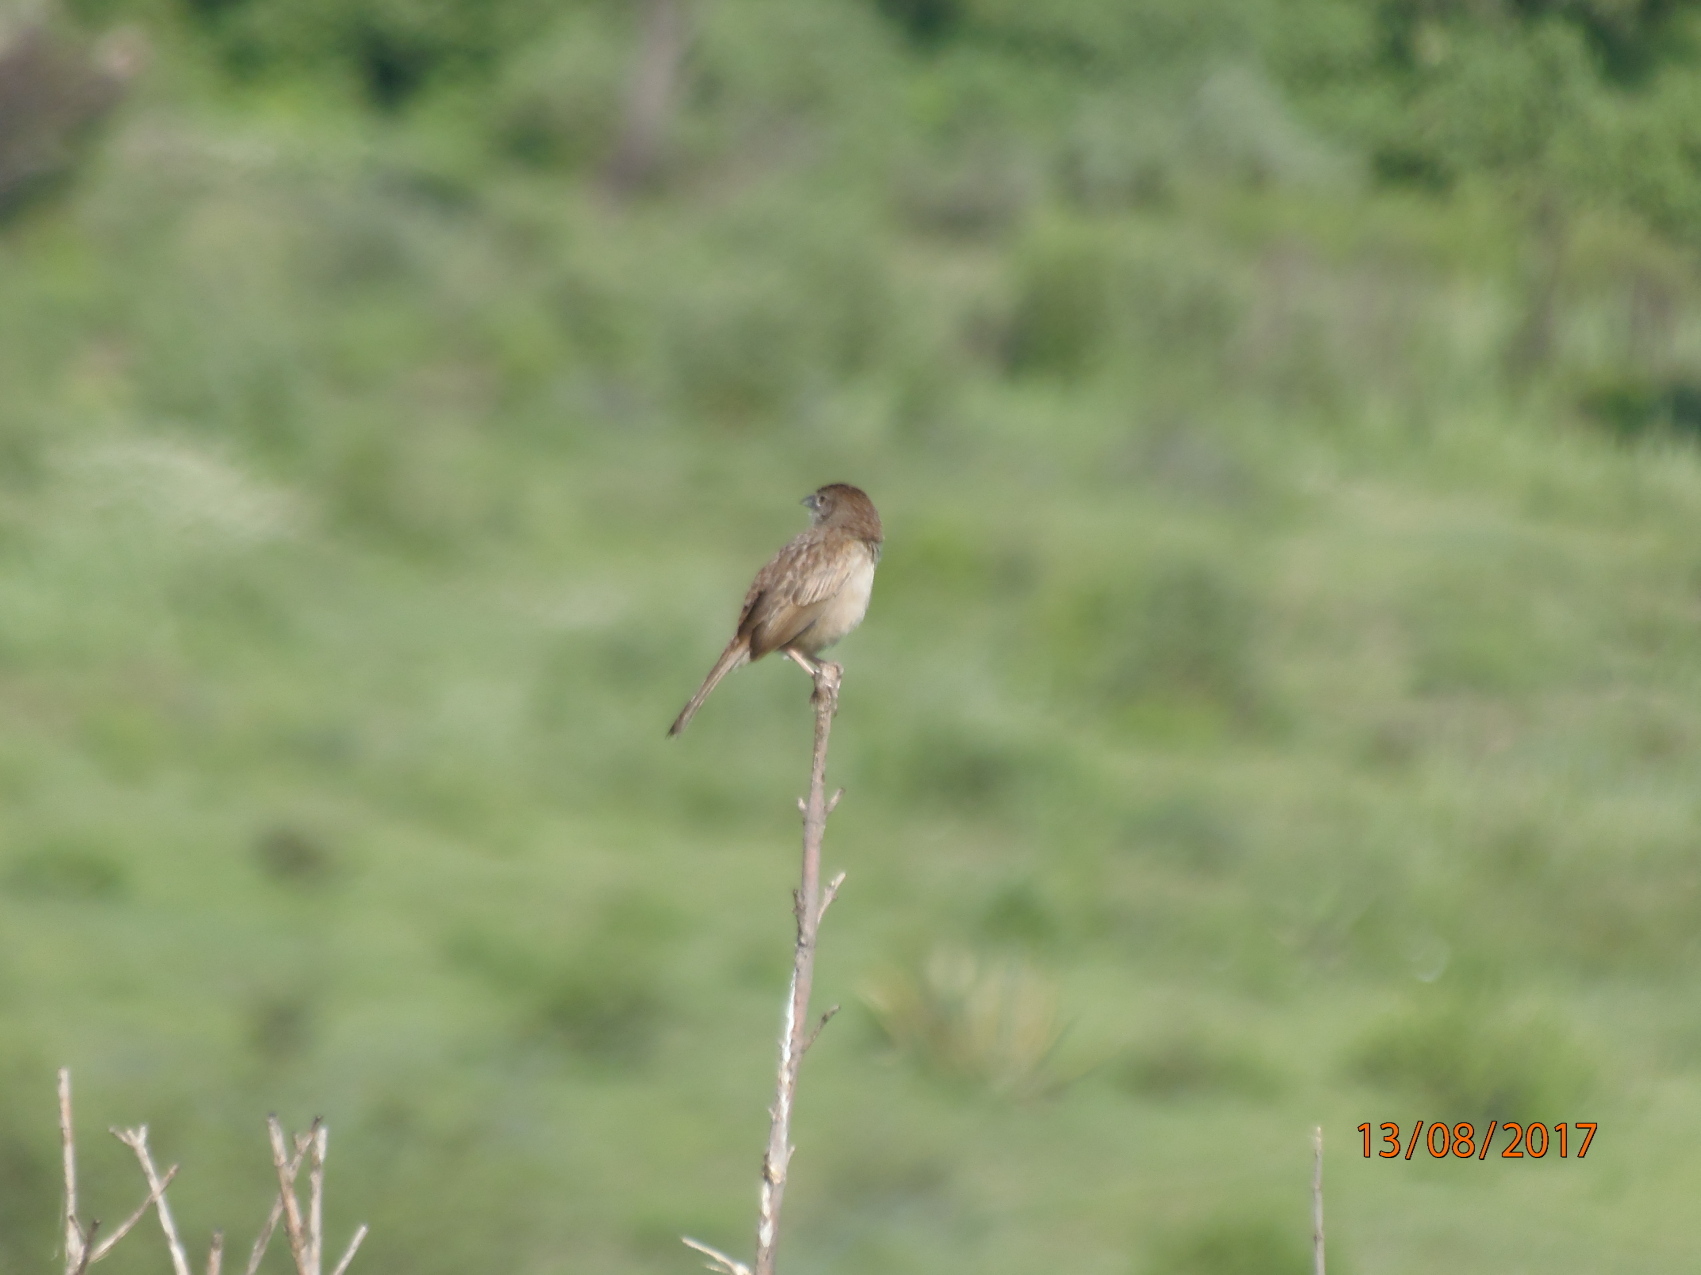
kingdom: Animalia
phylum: Chordata
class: Aves
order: Passeriformes
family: Passerellidae
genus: Peucaea
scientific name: Peucaea botterii
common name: Botteri's sparrow
